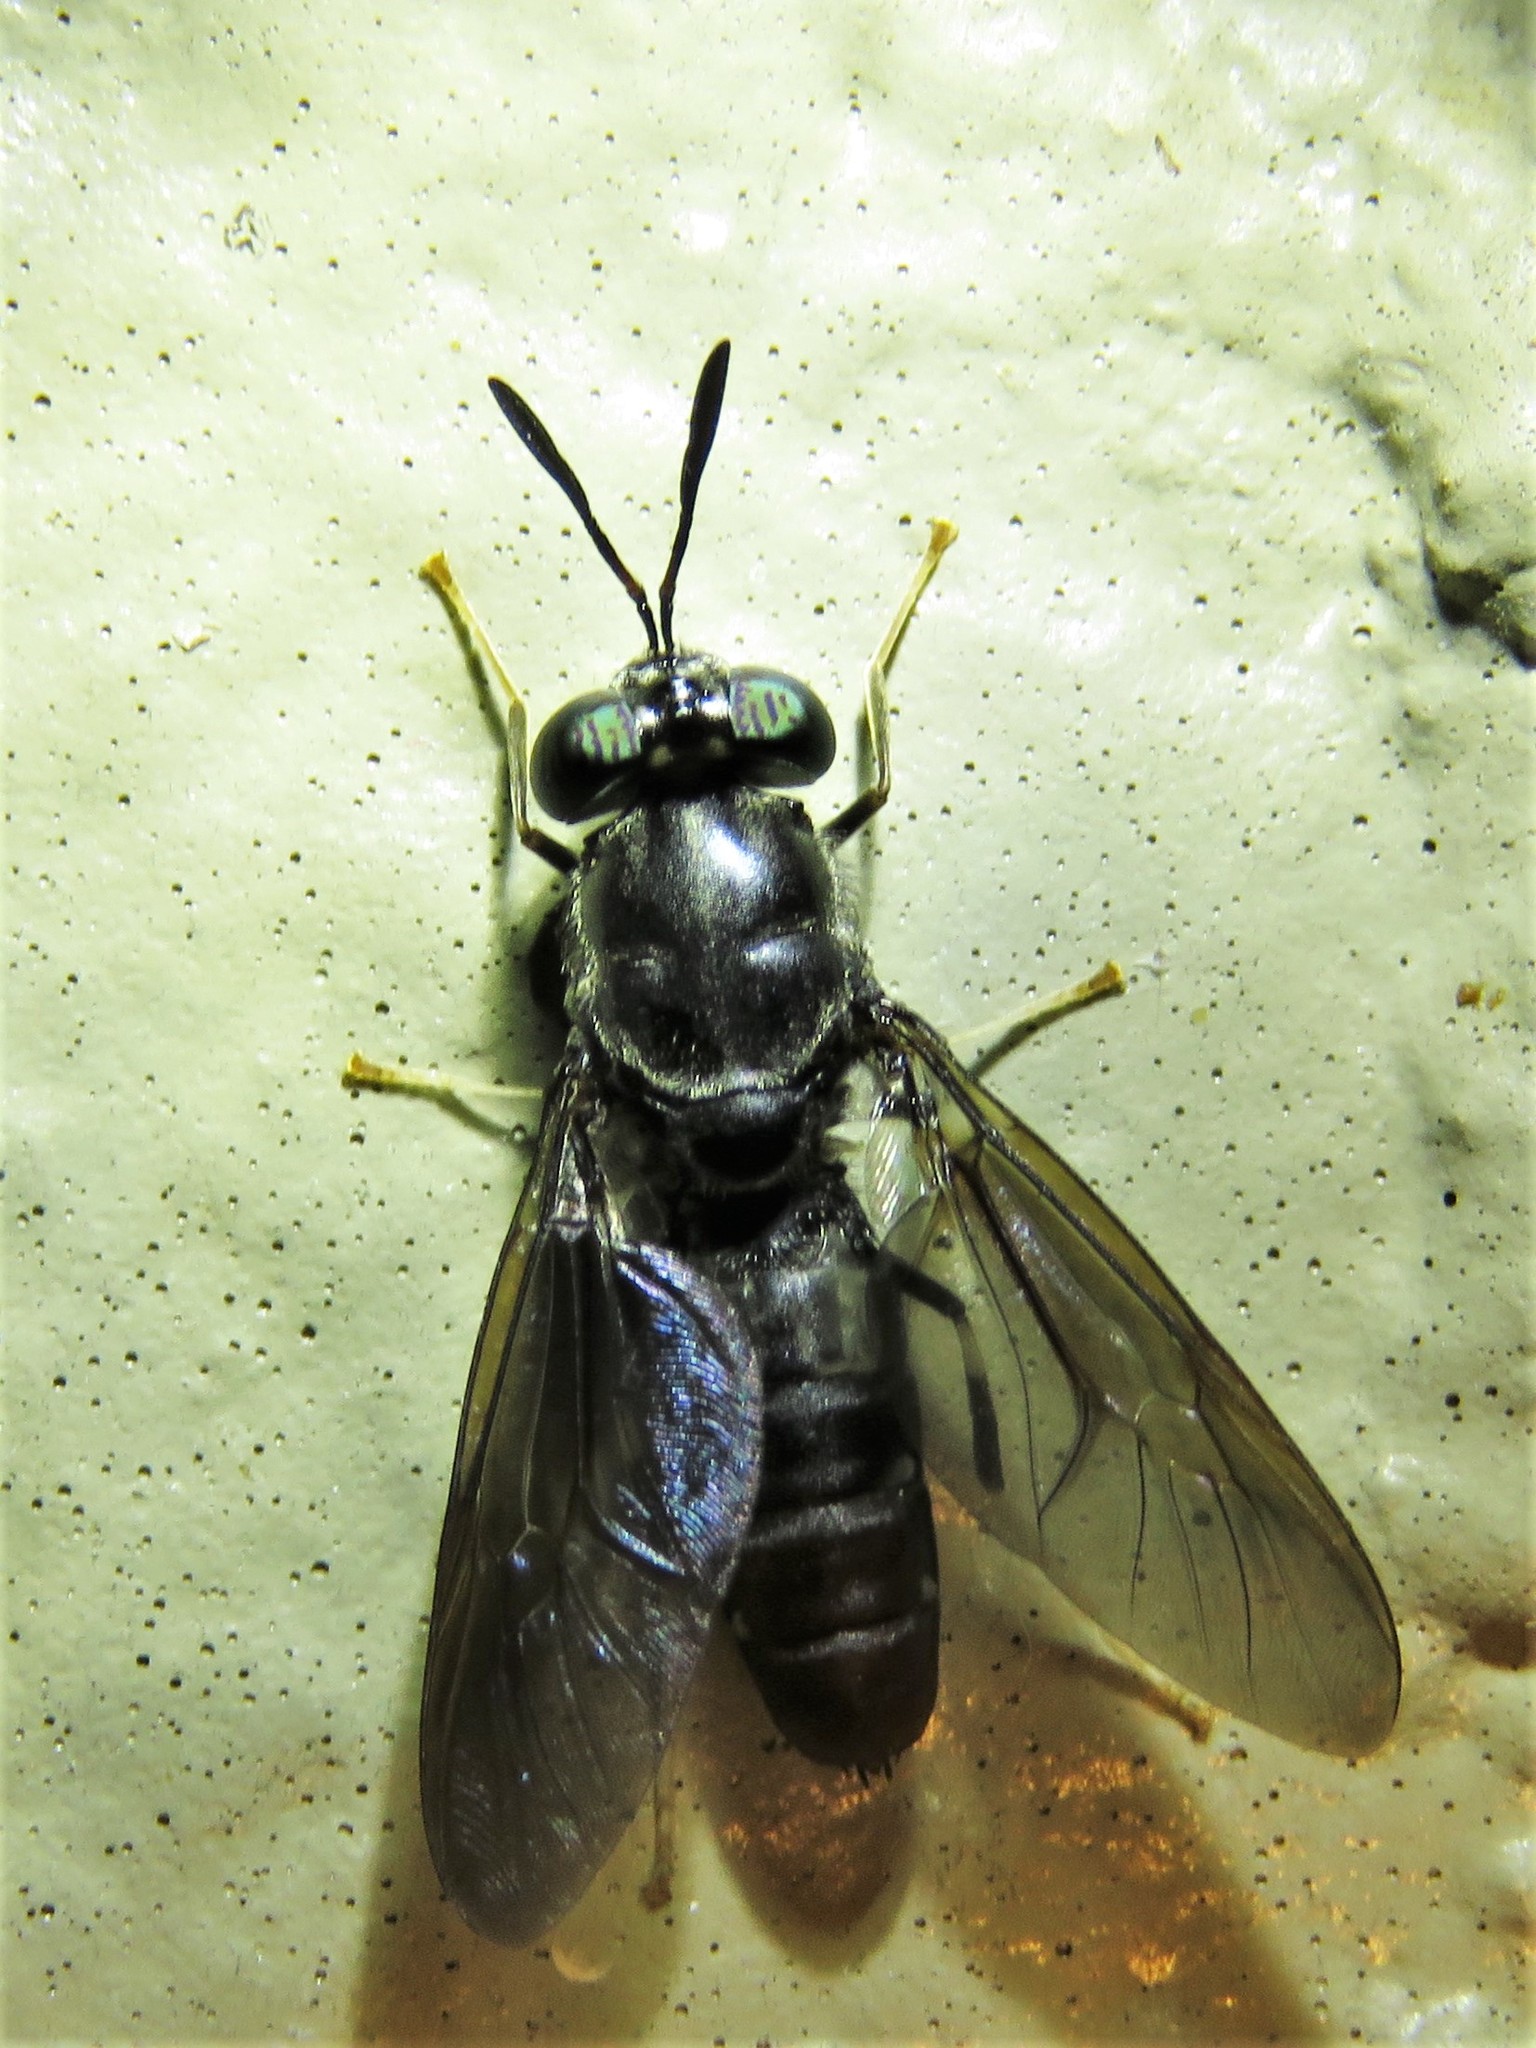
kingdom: Animalia
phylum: Arthropoda
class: Insecta
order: Diptera
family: Stratiomyidae
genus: Hermetia
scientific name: Hermetia illucens
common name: Black soldier fly
